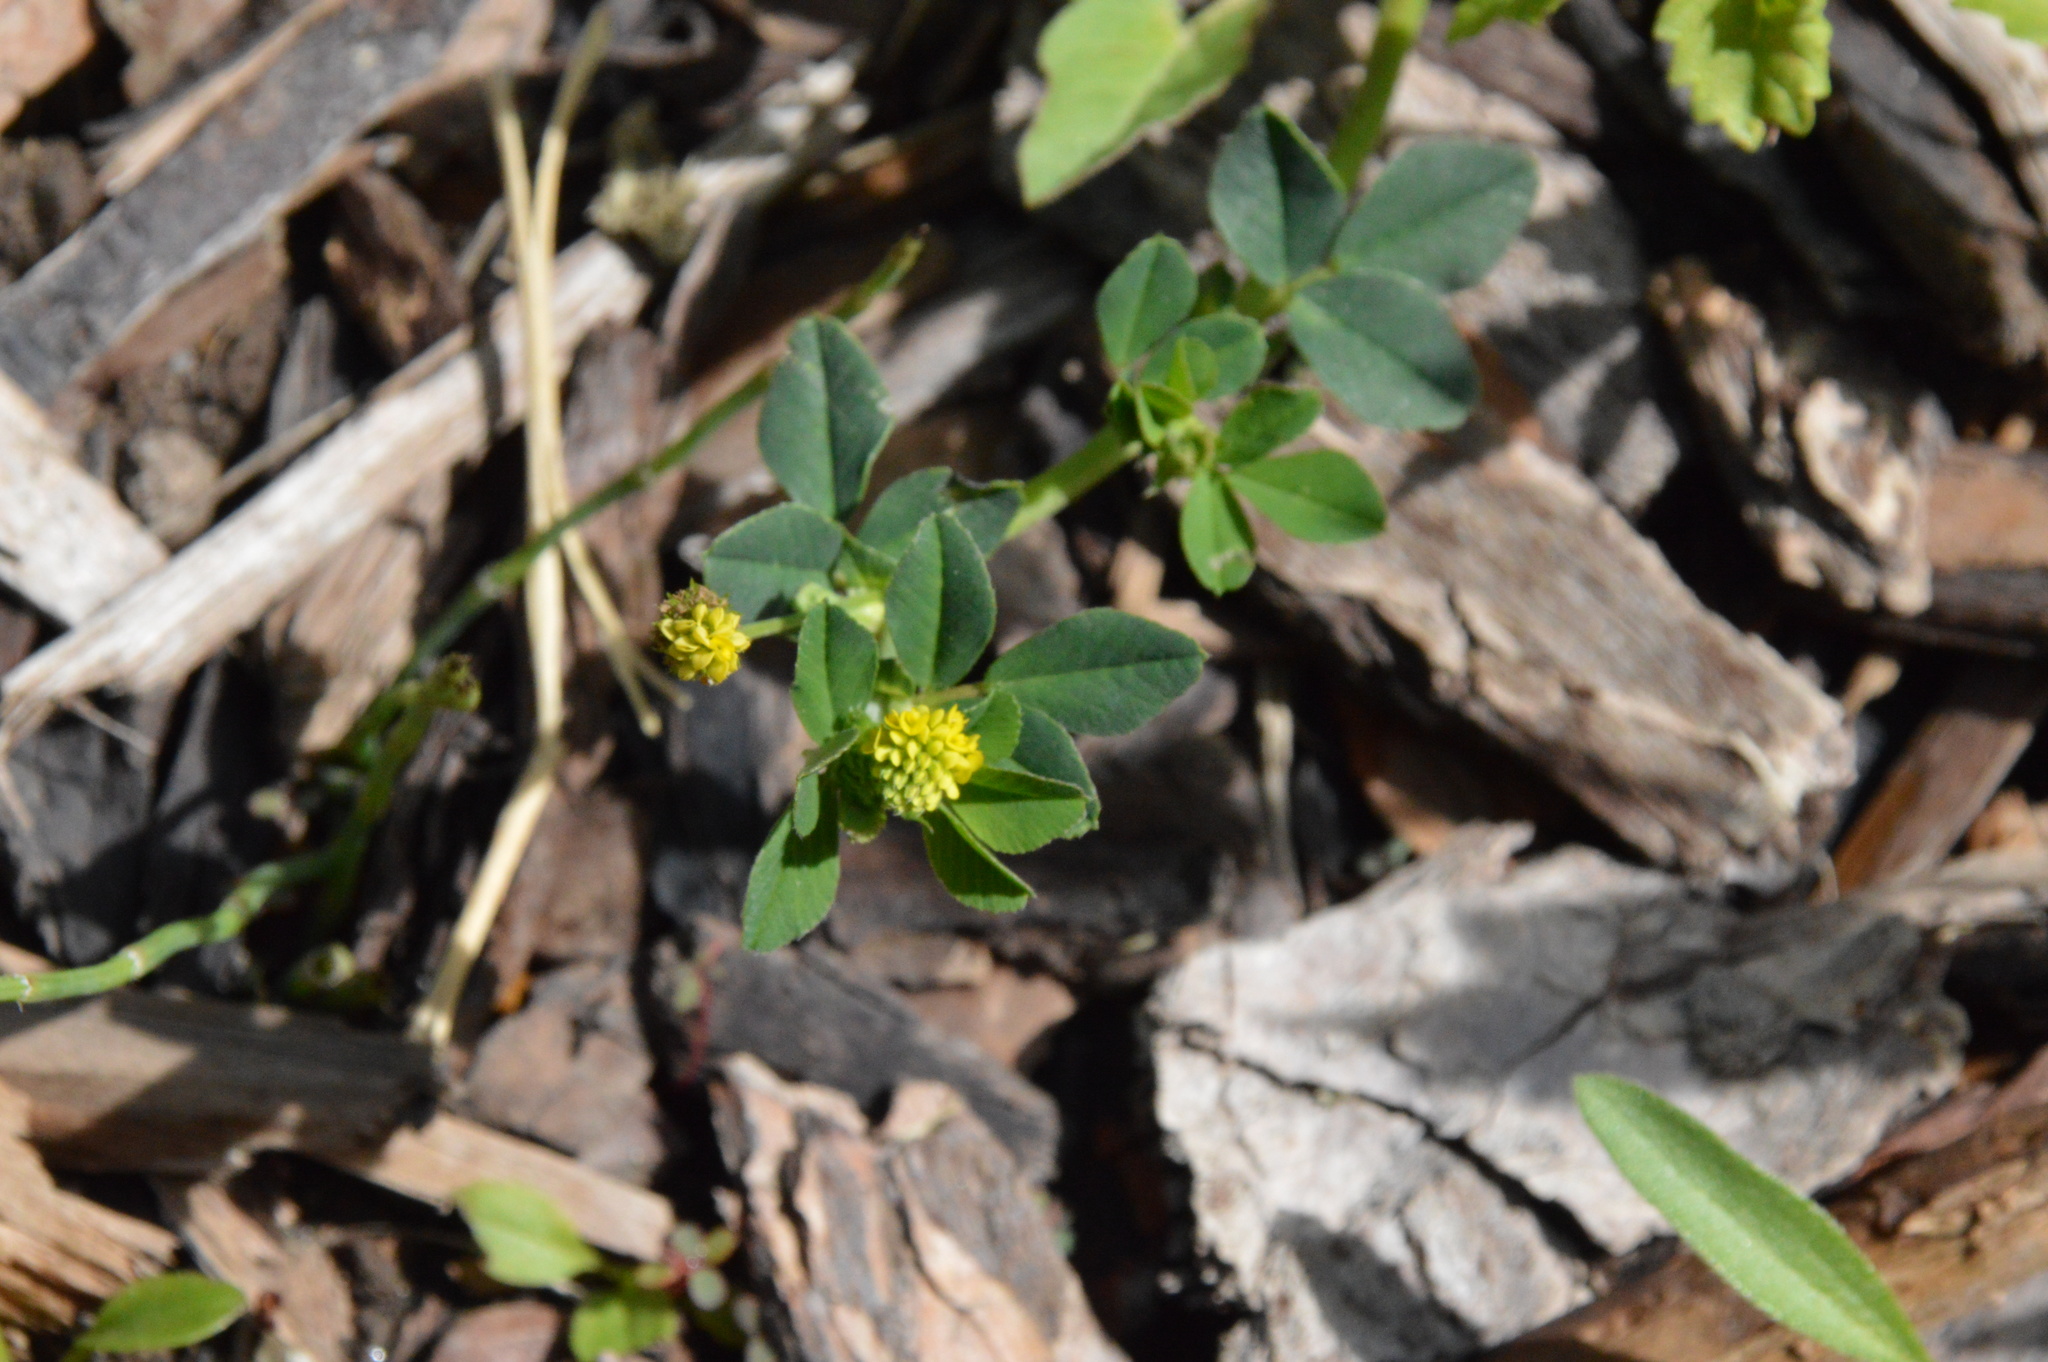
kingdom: Plantae
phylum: Tracheophyta
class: Magnoliopsida
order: Fabales
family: Fabaceae
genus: Medicago
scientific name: Medicago lupulina
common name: Black medick
